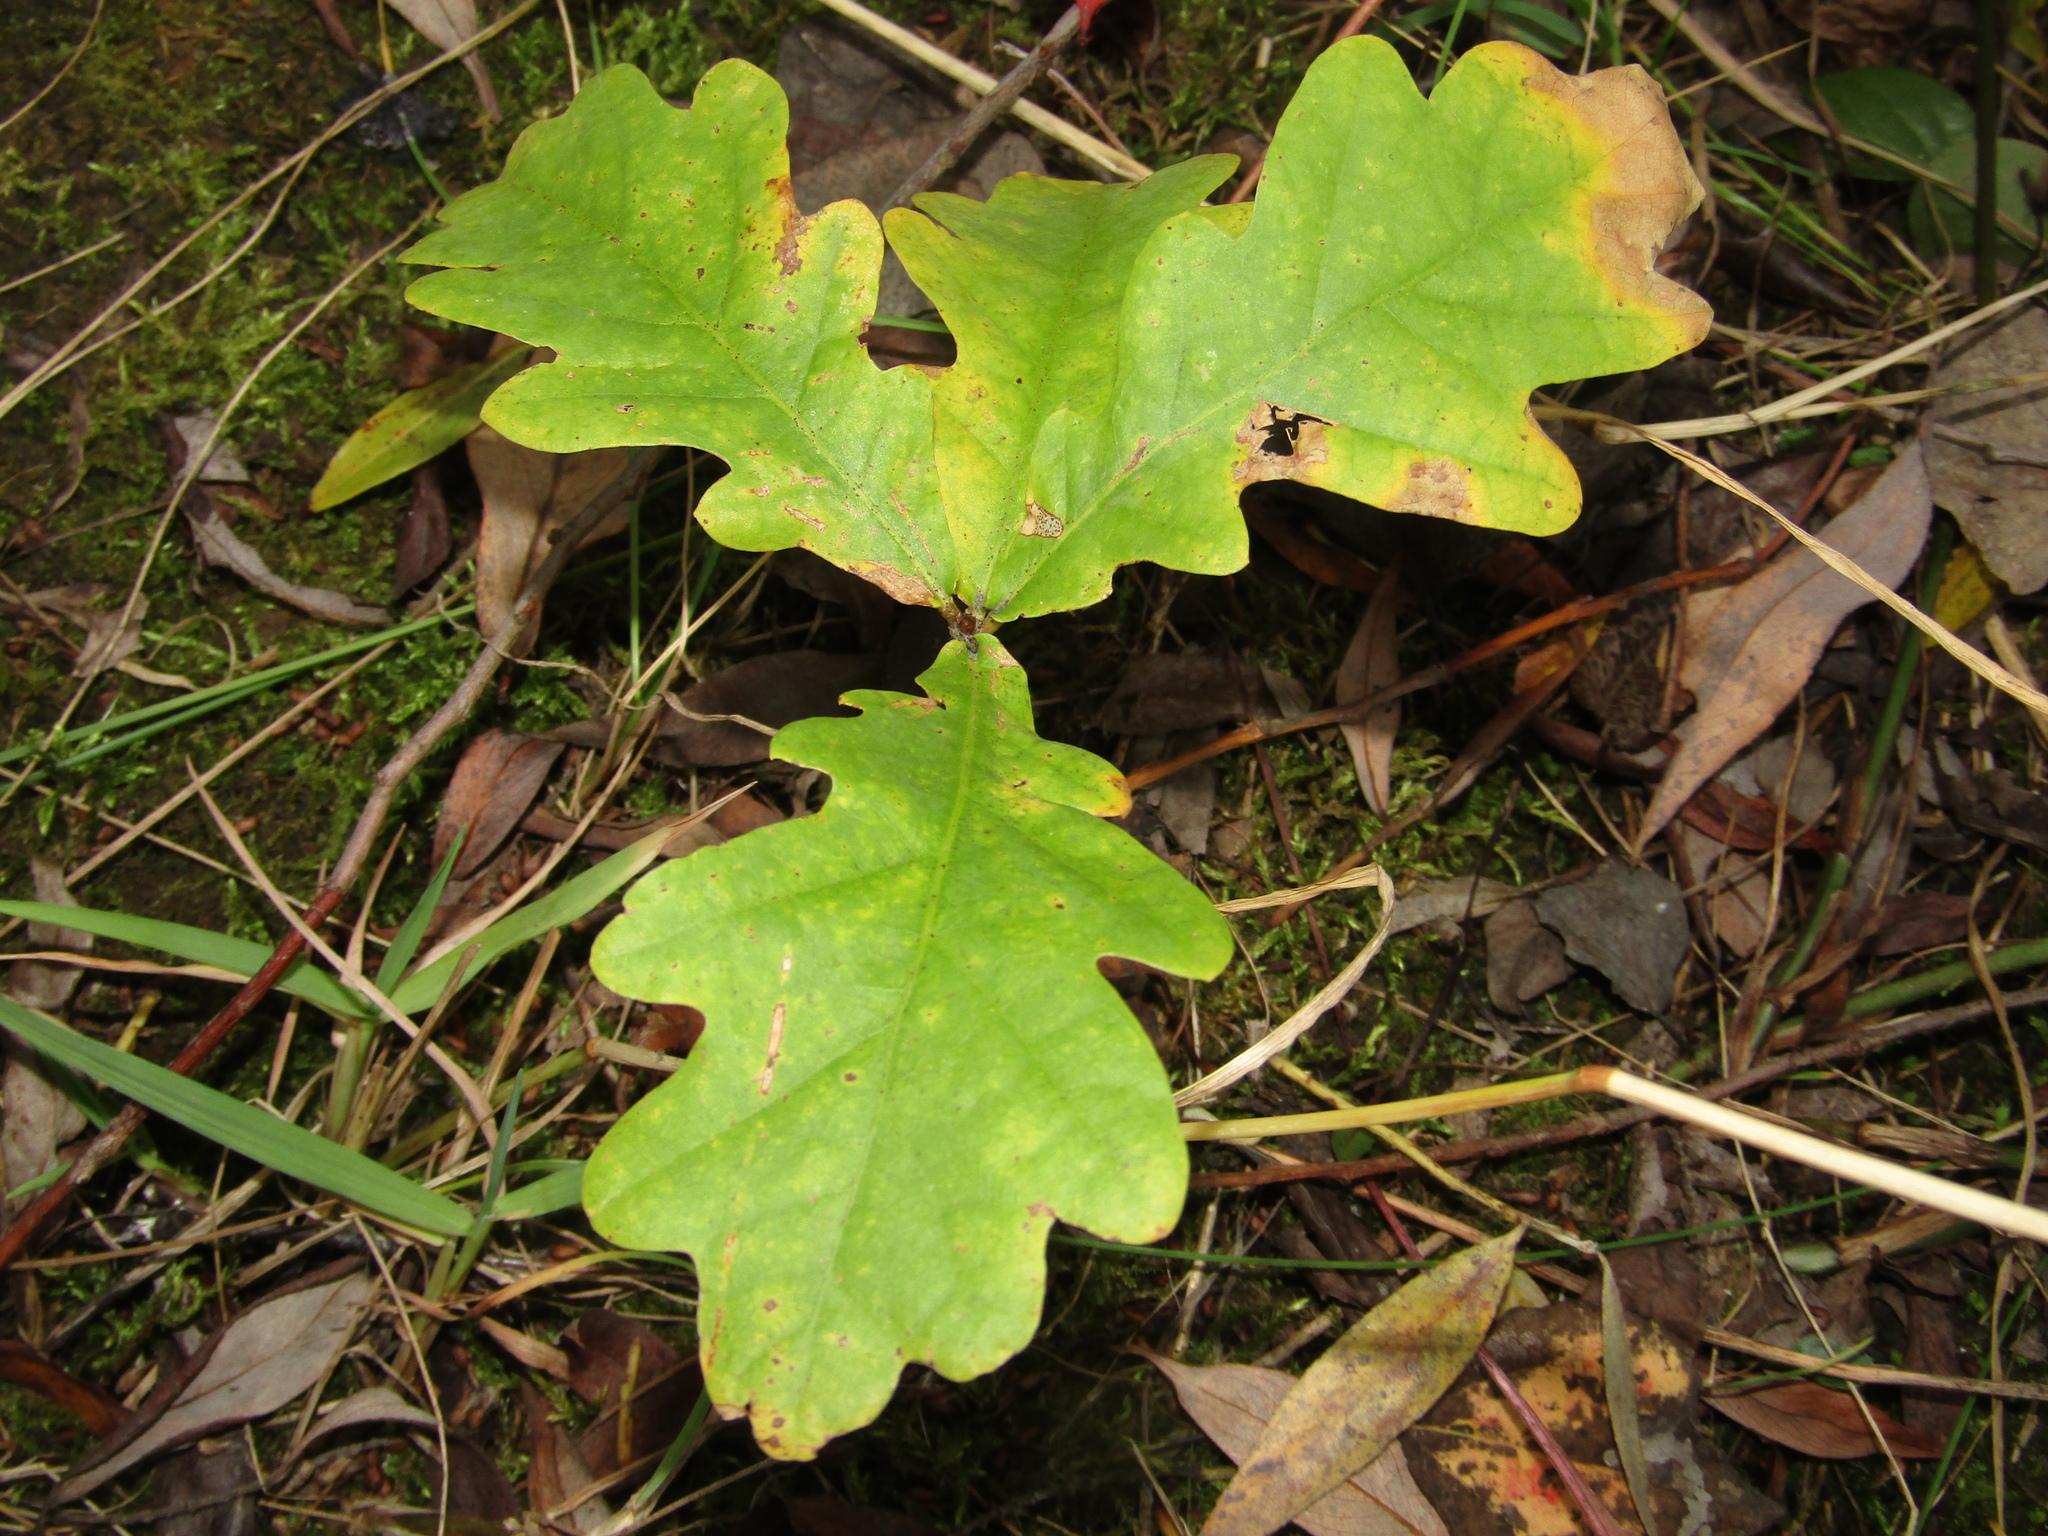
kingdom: Plantae
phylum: Tracheophyta
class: Magnoliopsida
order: Fagales
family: Fagaceae
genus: Quercus
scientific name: Quercus robur
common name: Pedunculate oak
